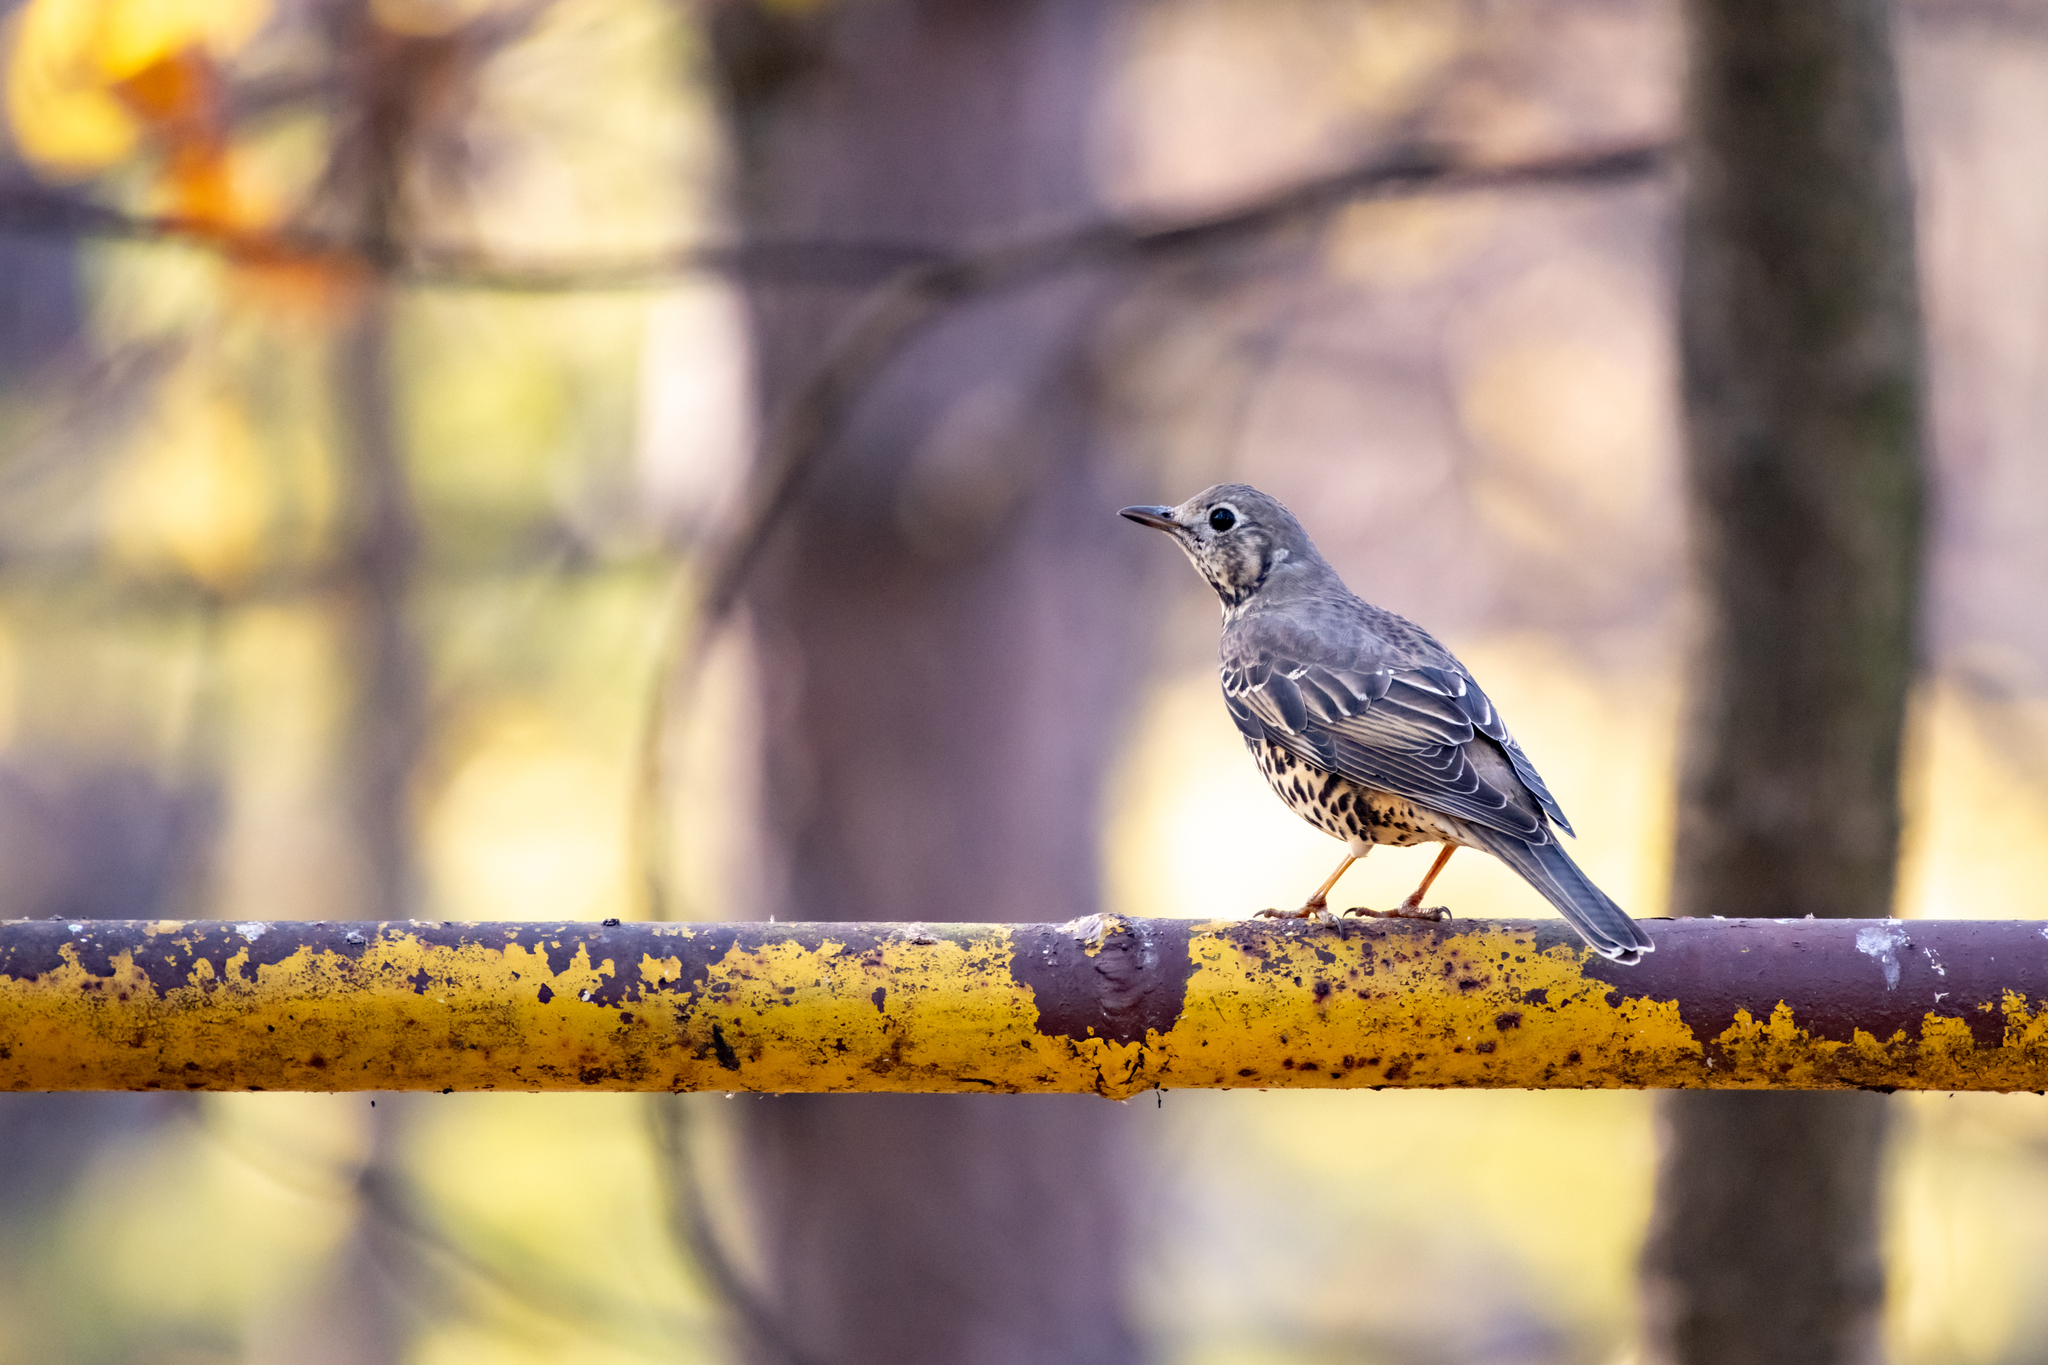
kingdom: Animalia
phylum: Chordata
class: Aves
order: Passeriformes
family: Turdidae
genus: Turdus
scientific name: Turdus viscivorus
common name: Mistle thrush
